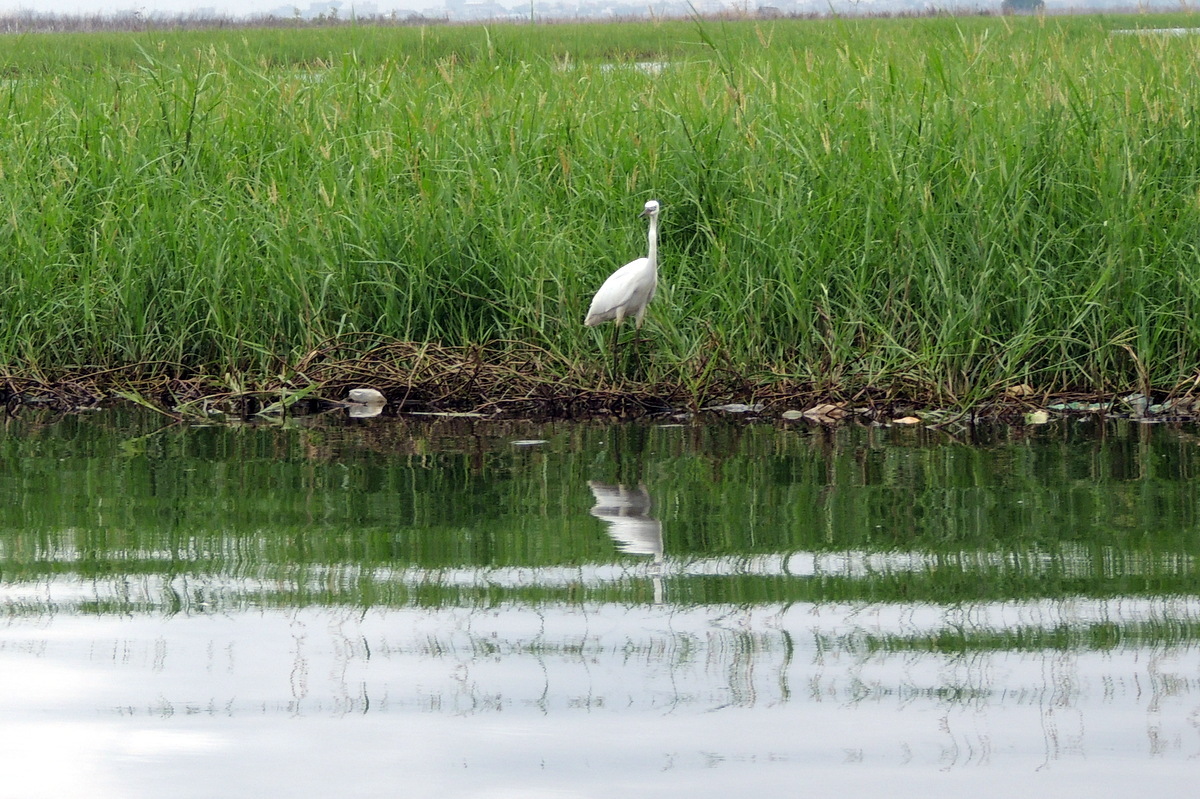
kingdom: Animalia
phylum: Chordata
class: Aves
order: Pelecaniformes
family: Ardeidae
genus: Egretta
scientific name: Egretta intermedia
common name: Intermediate egret
